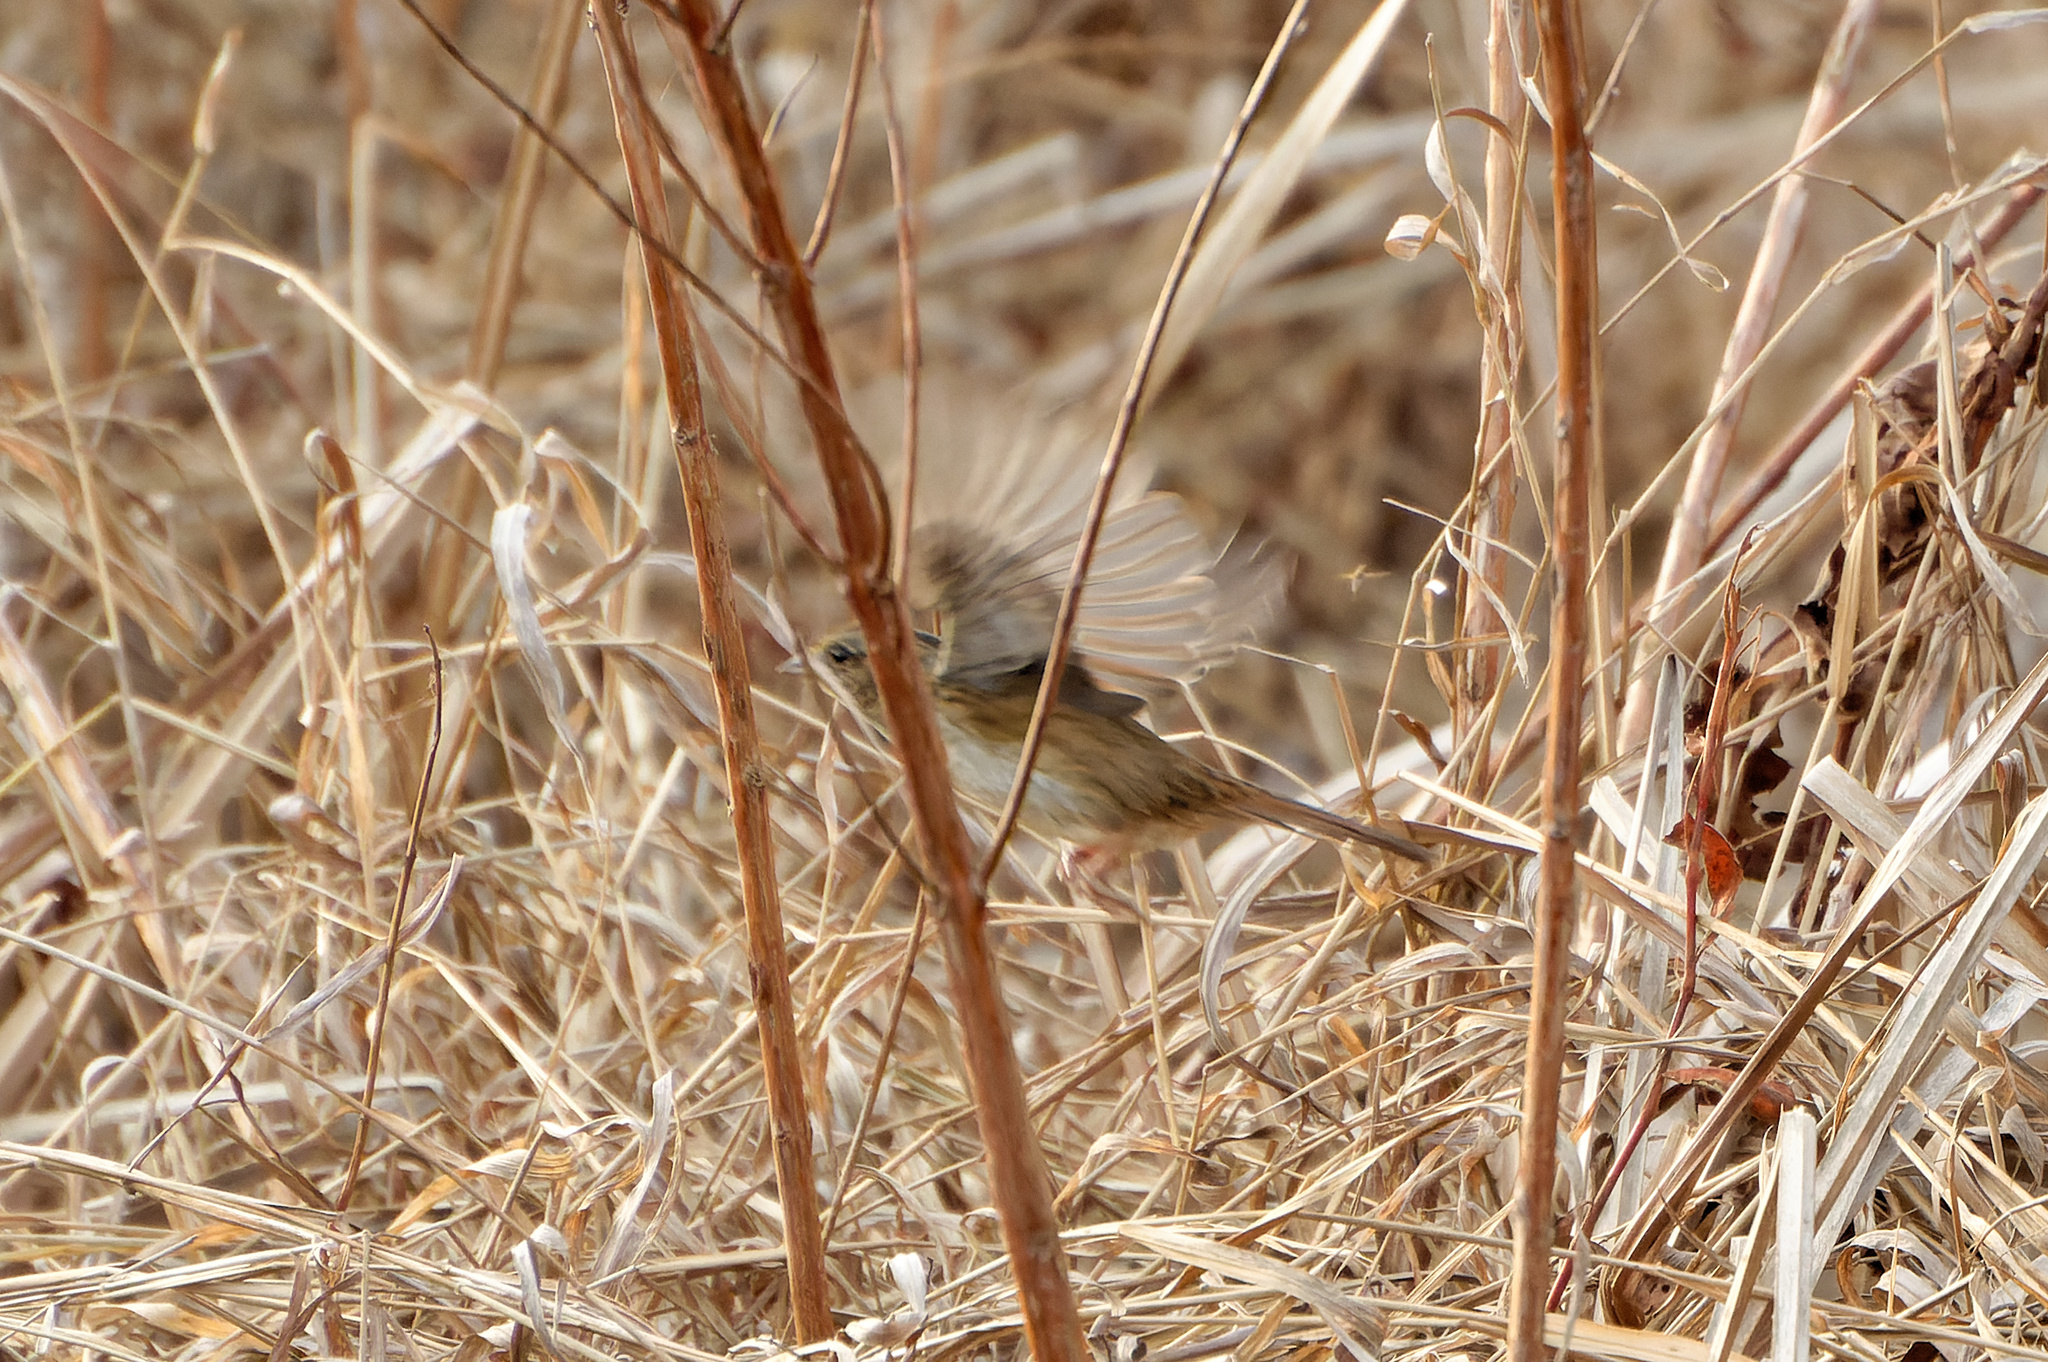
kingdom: Animalia
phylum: Chordata
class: Aves
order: Passeriformes
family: Passerellidae
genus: Melospiza
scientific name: Melospiza georgiana
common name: Swamp sparrow
